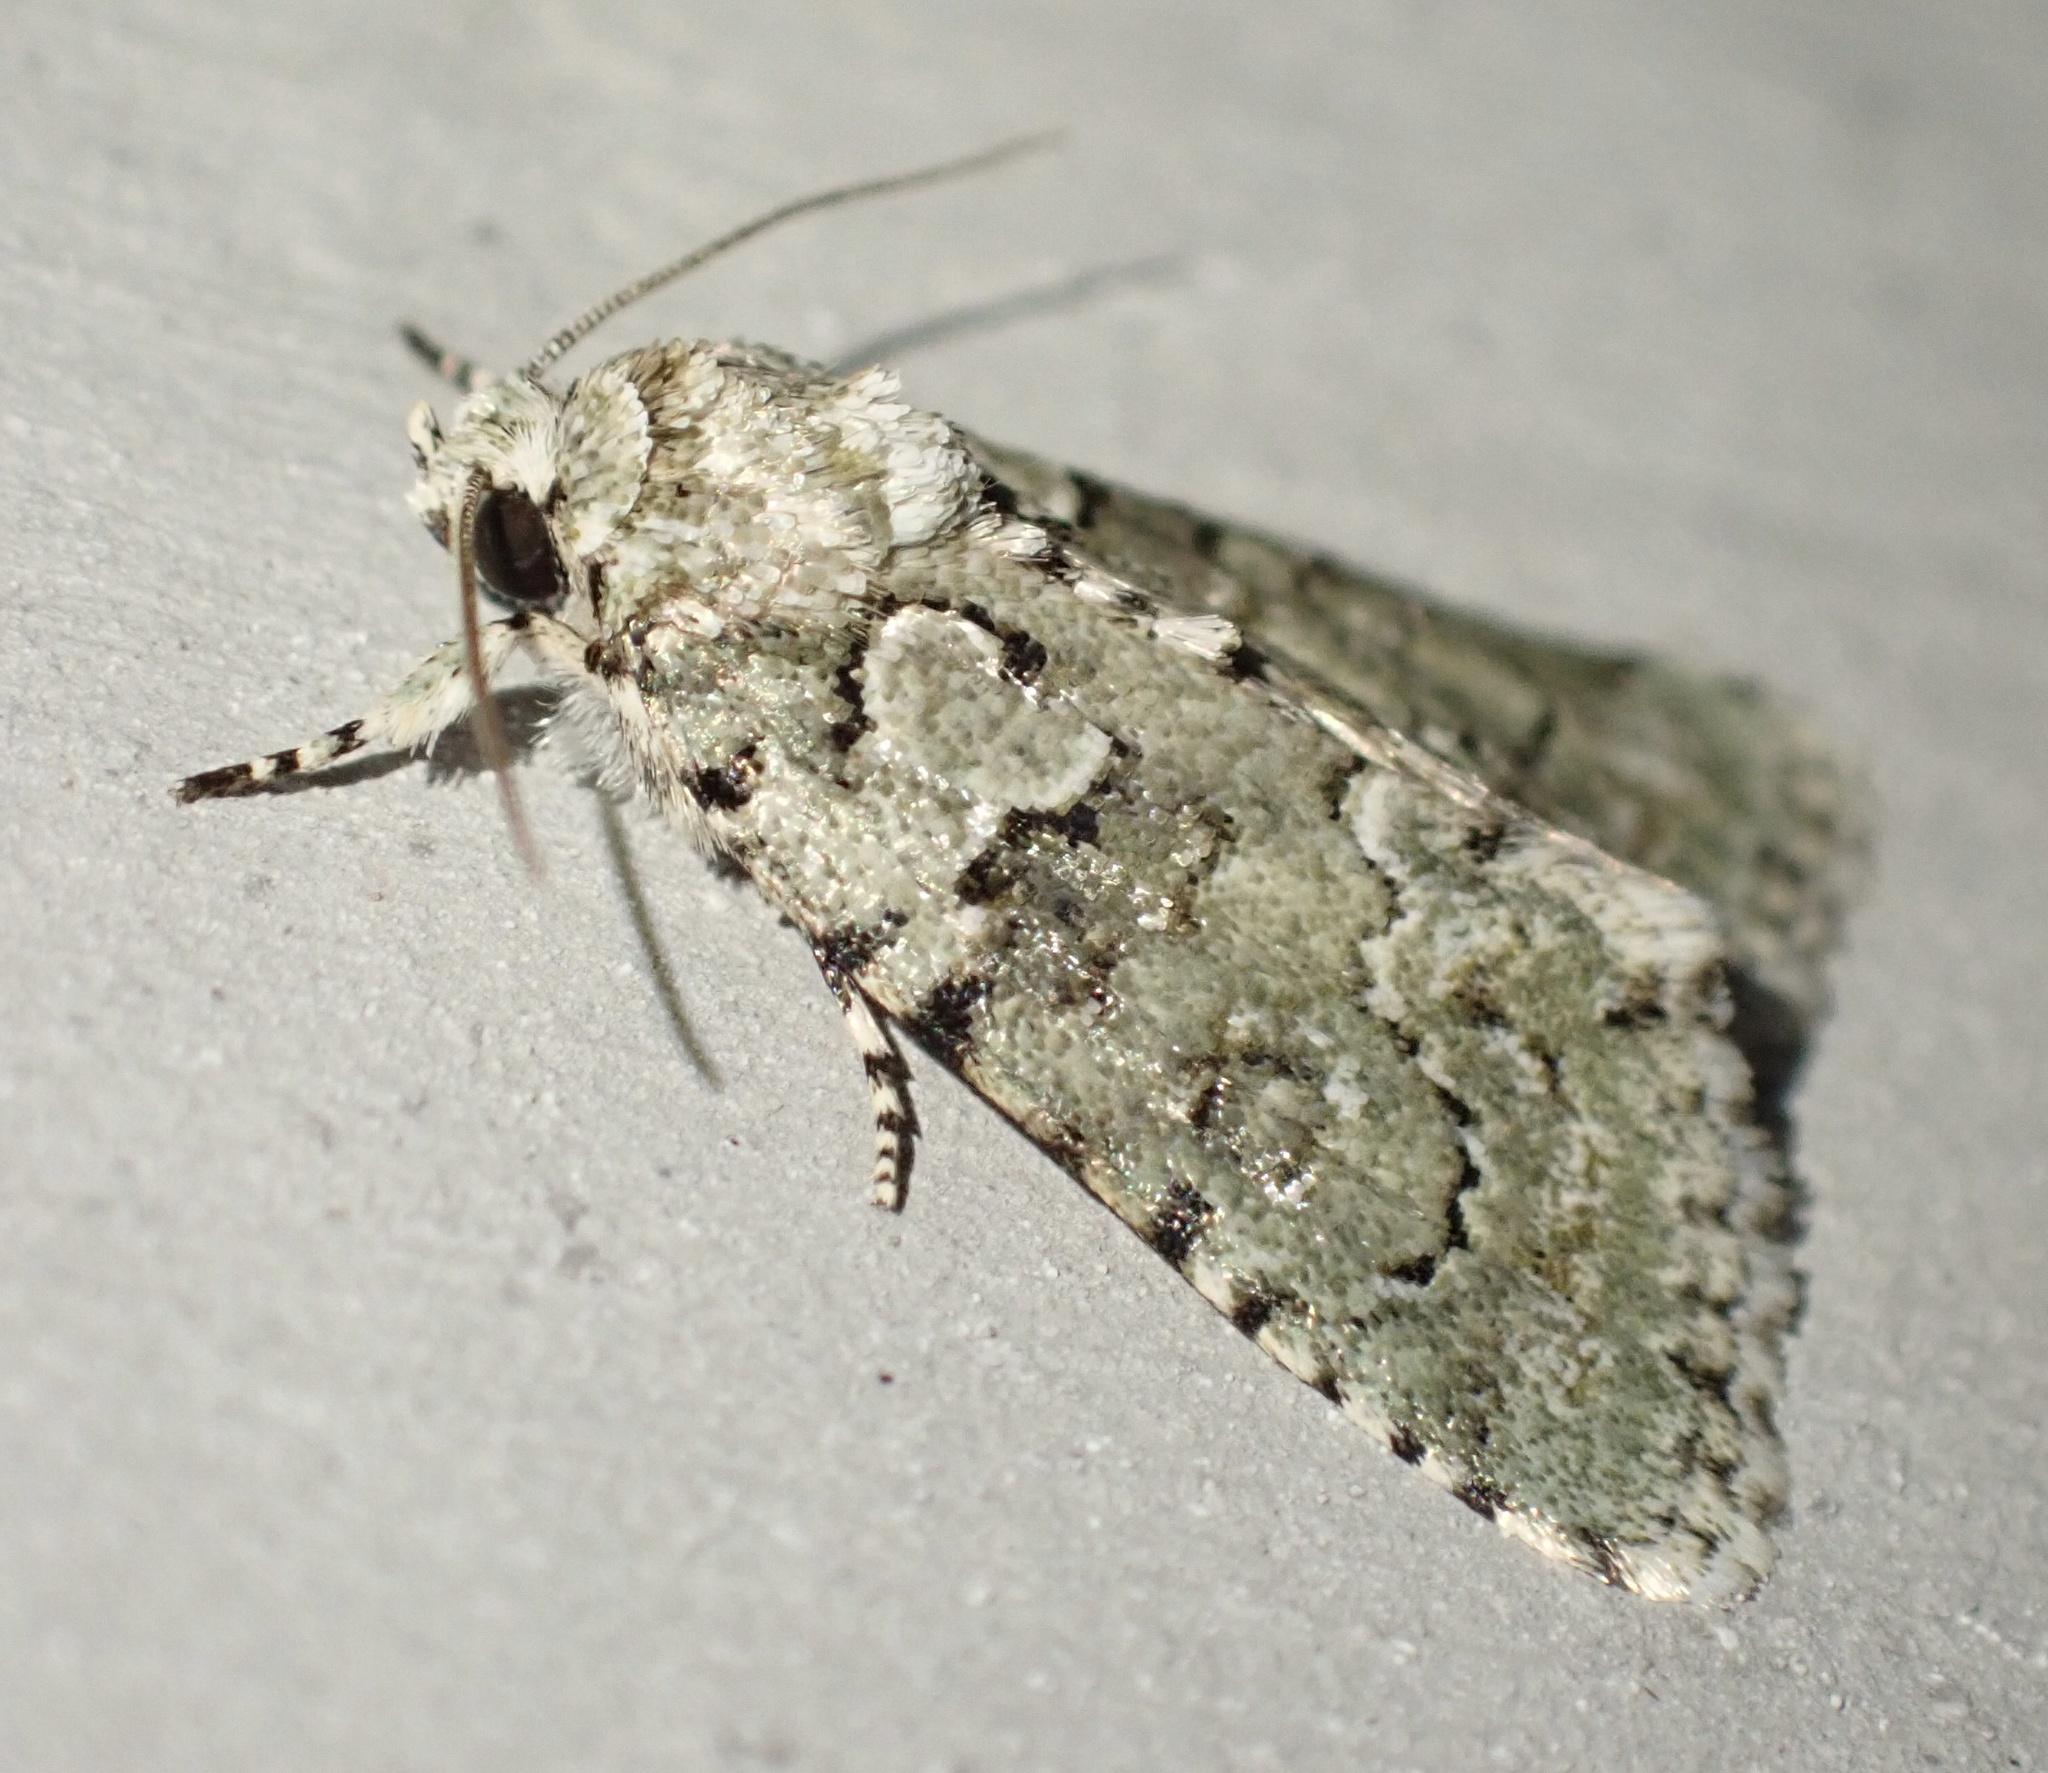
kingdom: Animalia
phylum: Arthropoda
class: Insecta
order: Lepidoptera
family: Noctuidae
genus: Nyctobrya
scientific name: Nyctobrya muralis
